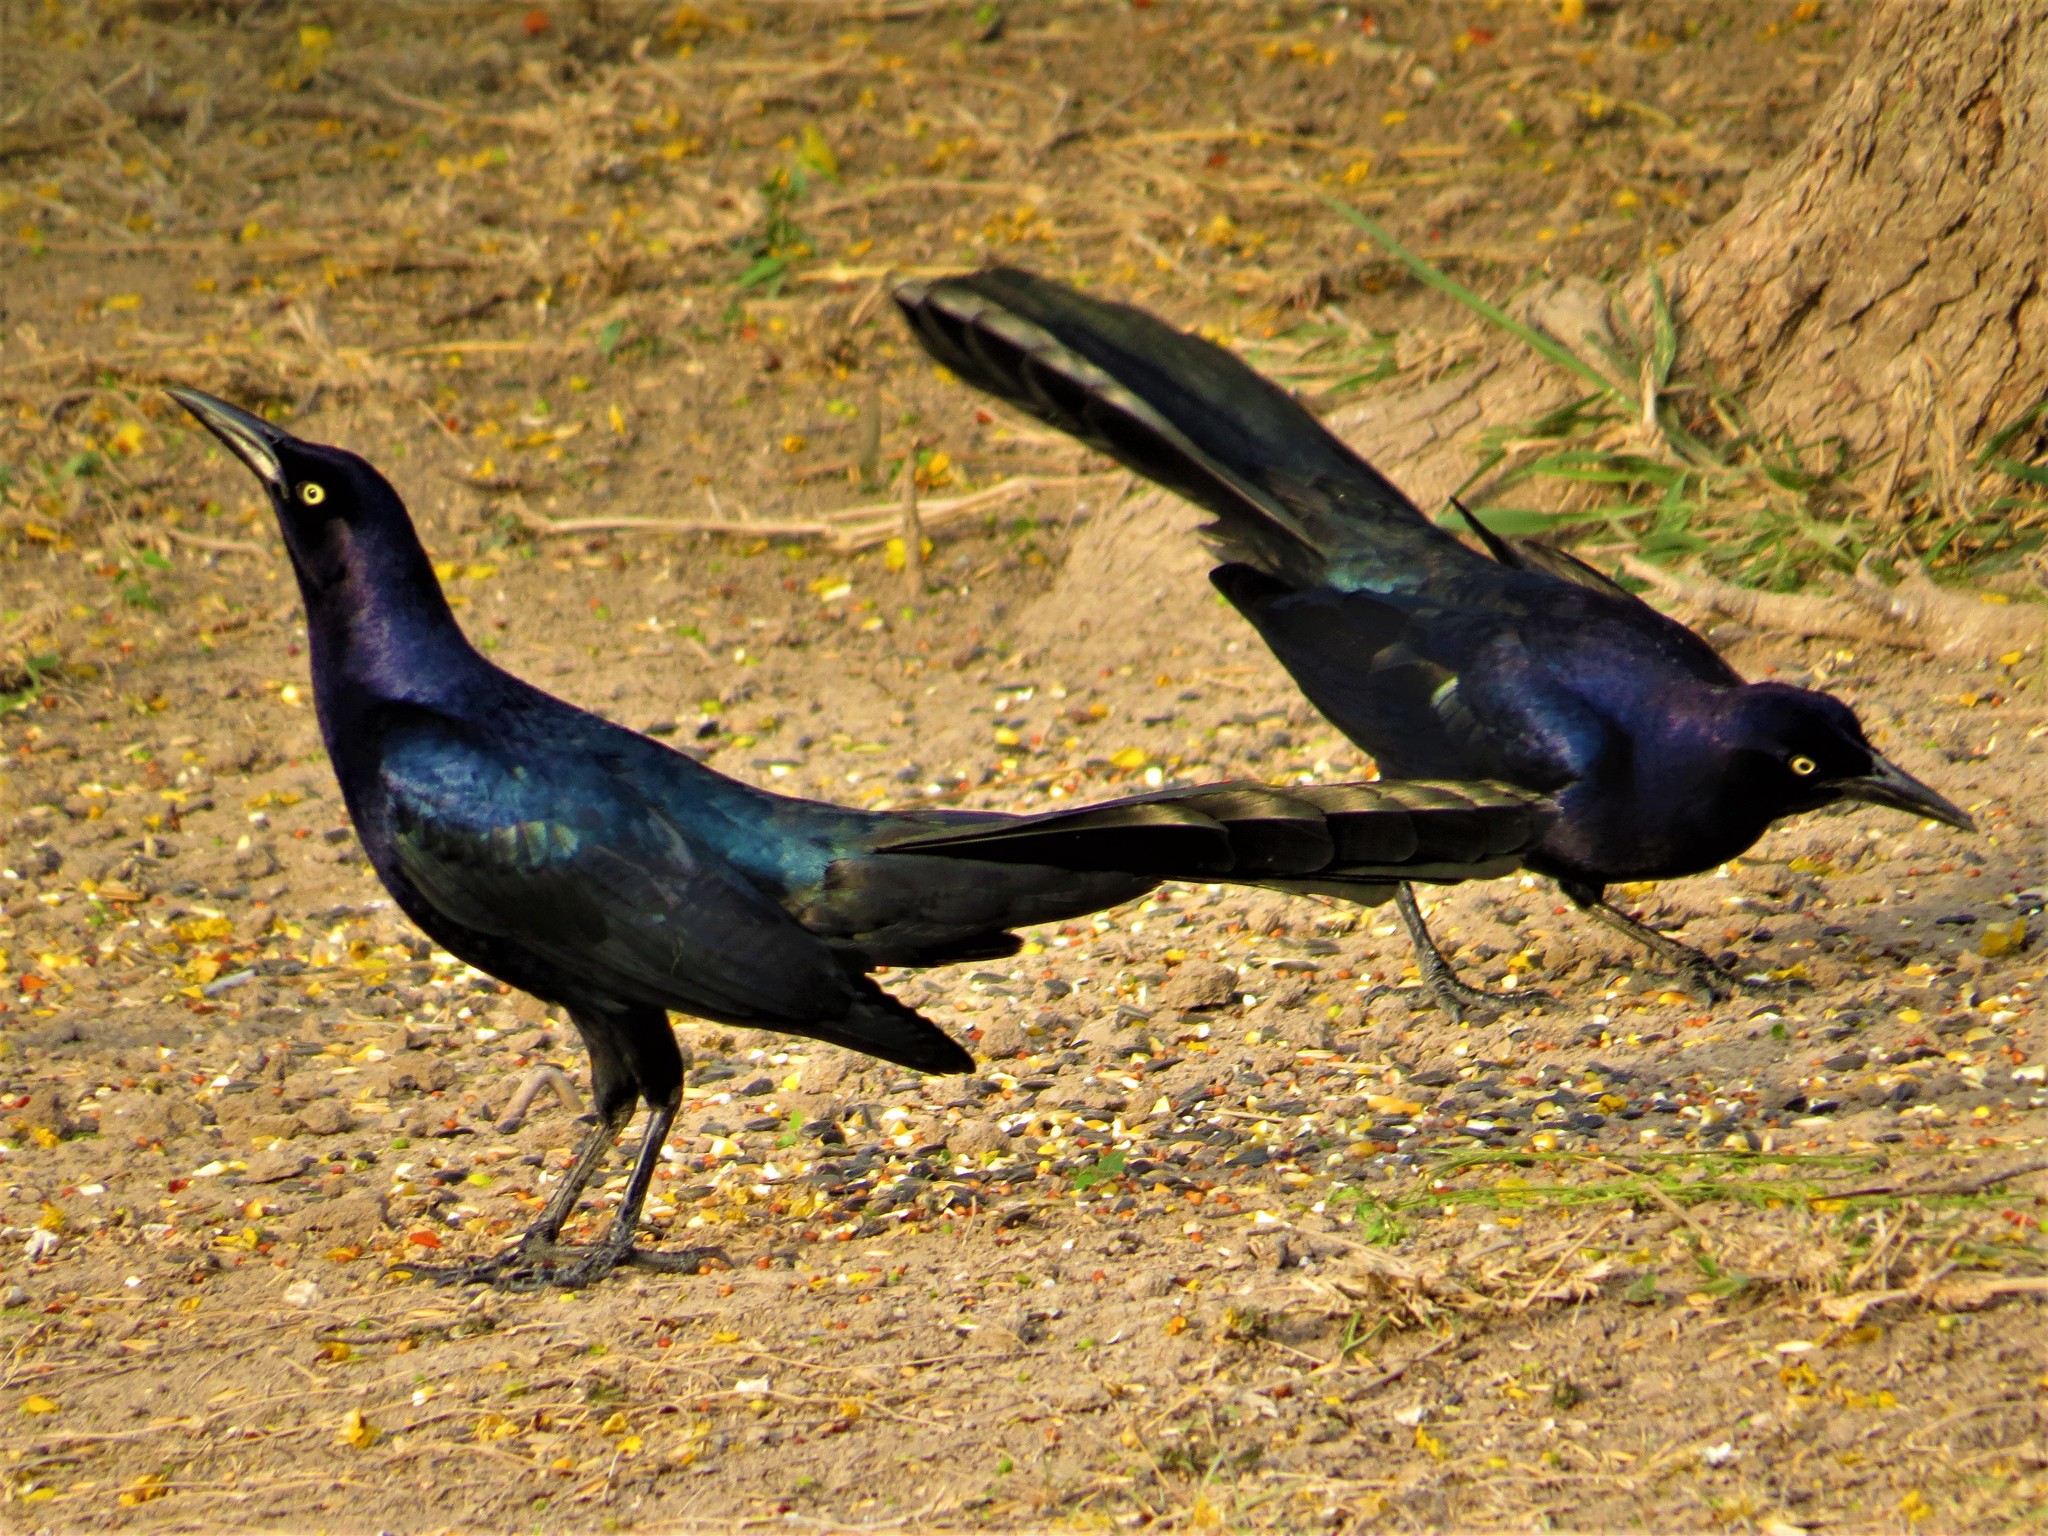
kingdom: Animalia
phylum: Chordata
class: Aves
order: Passeriformes
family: Icteridae
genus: Quiscalus
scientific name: Quiscalus mexicanus
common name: Great-tailed grackle
